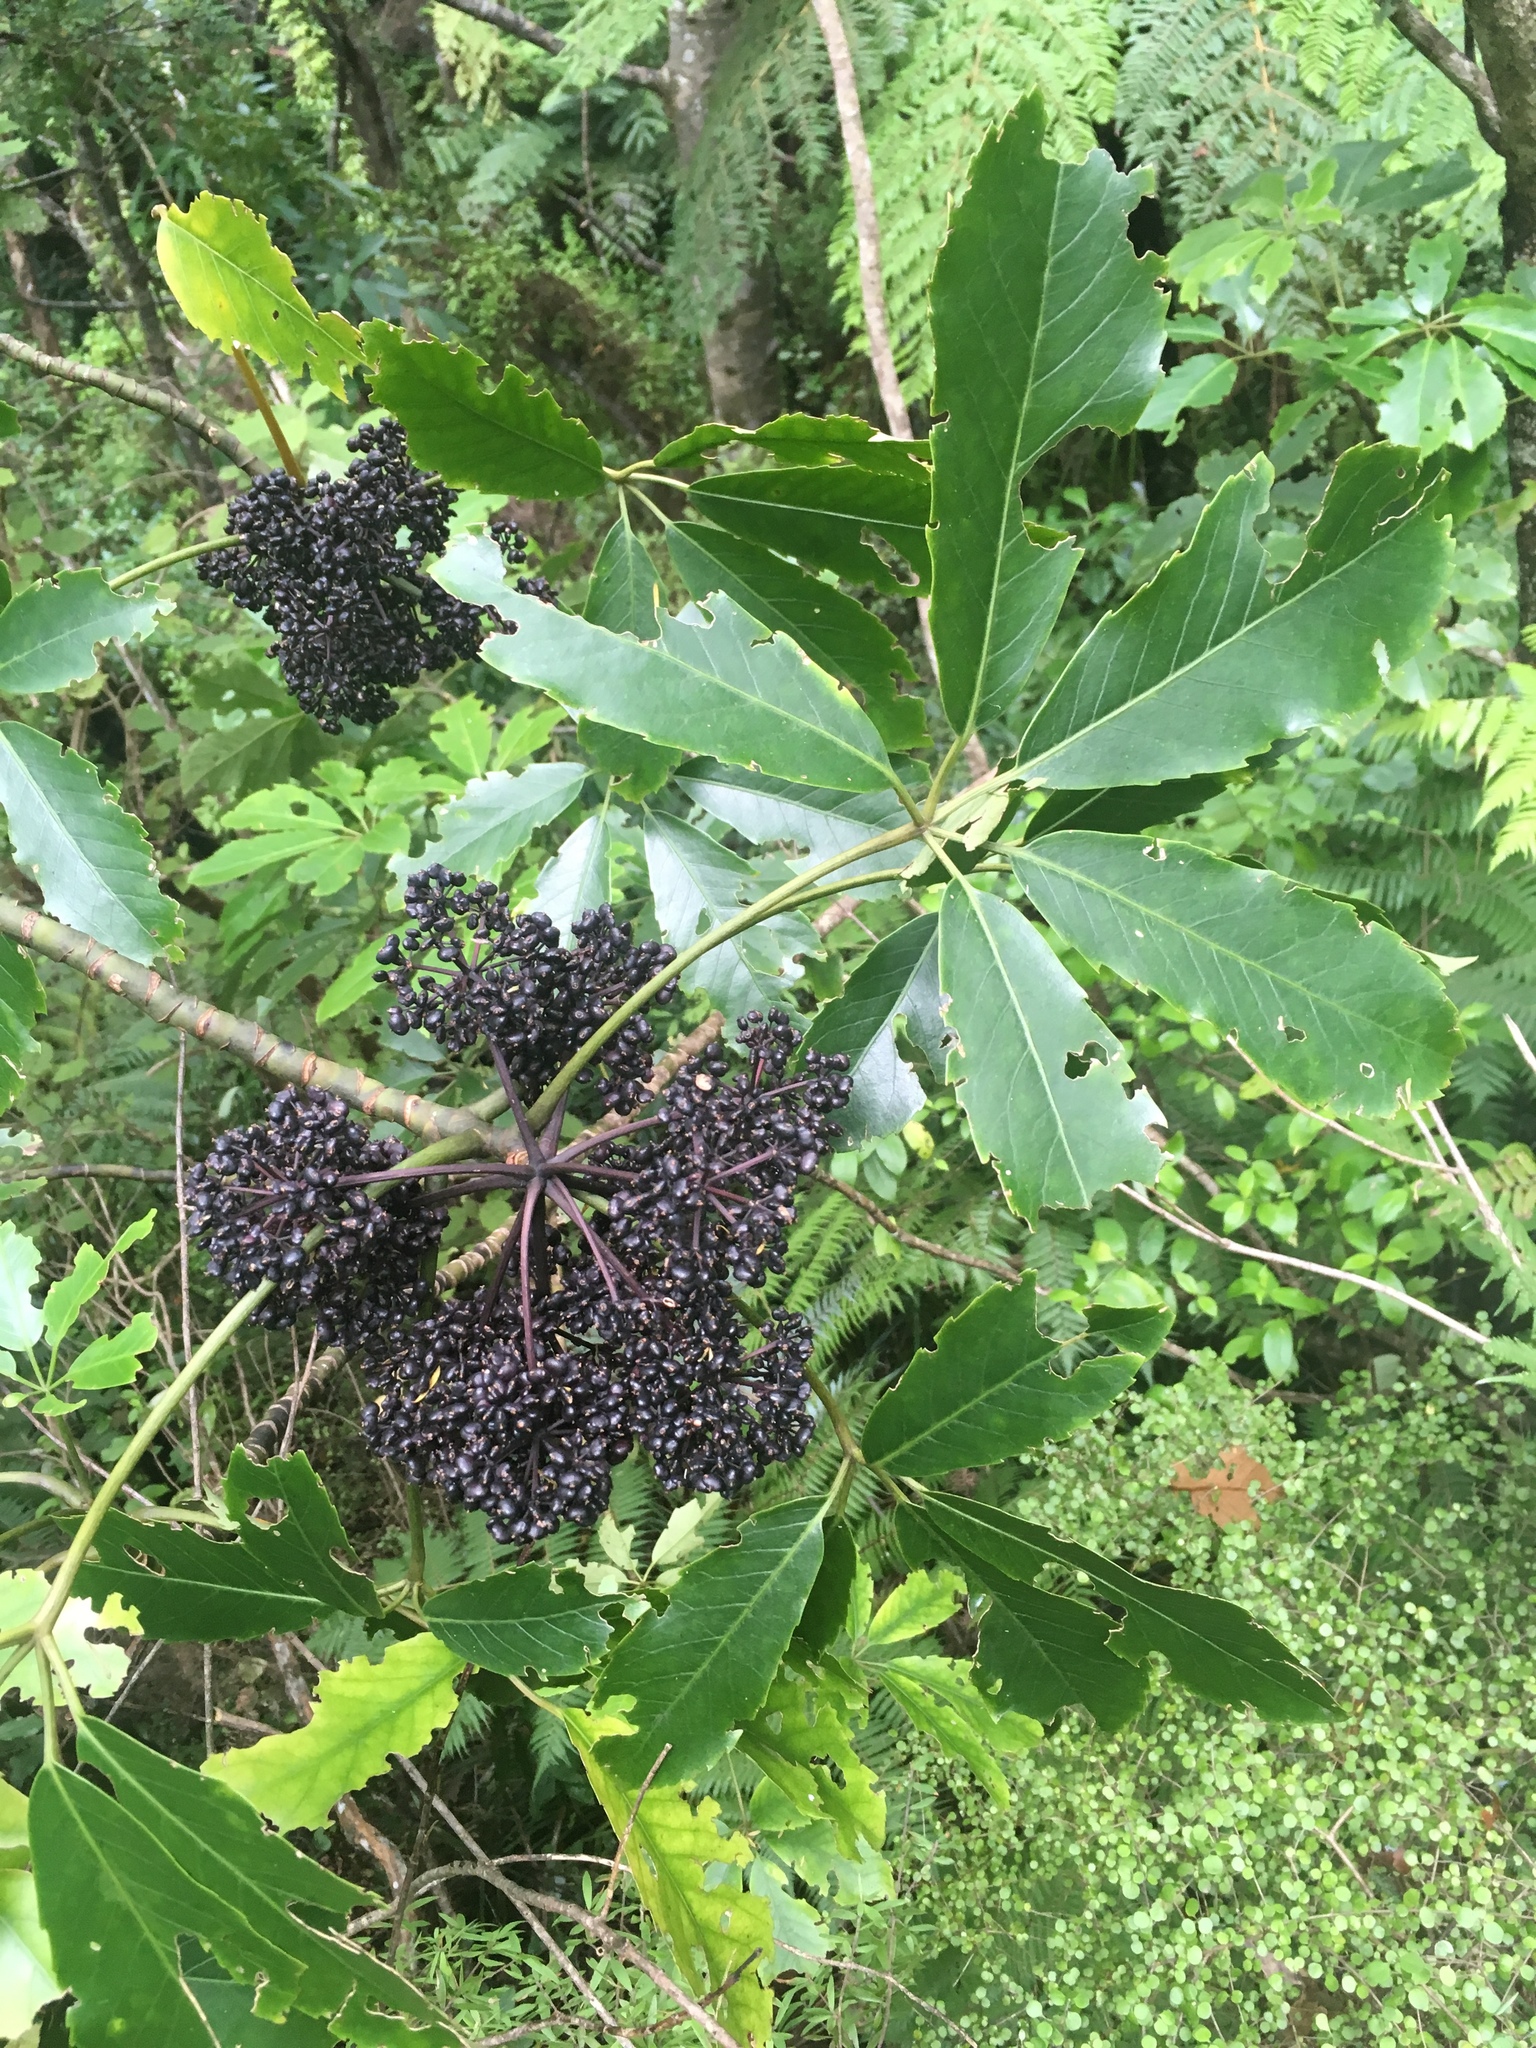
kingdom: Plantae
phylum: Tracheophyta
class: Magnoliopsida
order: Apiales
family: Araliaceae
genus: Neopanax
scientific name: Neopanax arboreus
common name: Five-fingers
